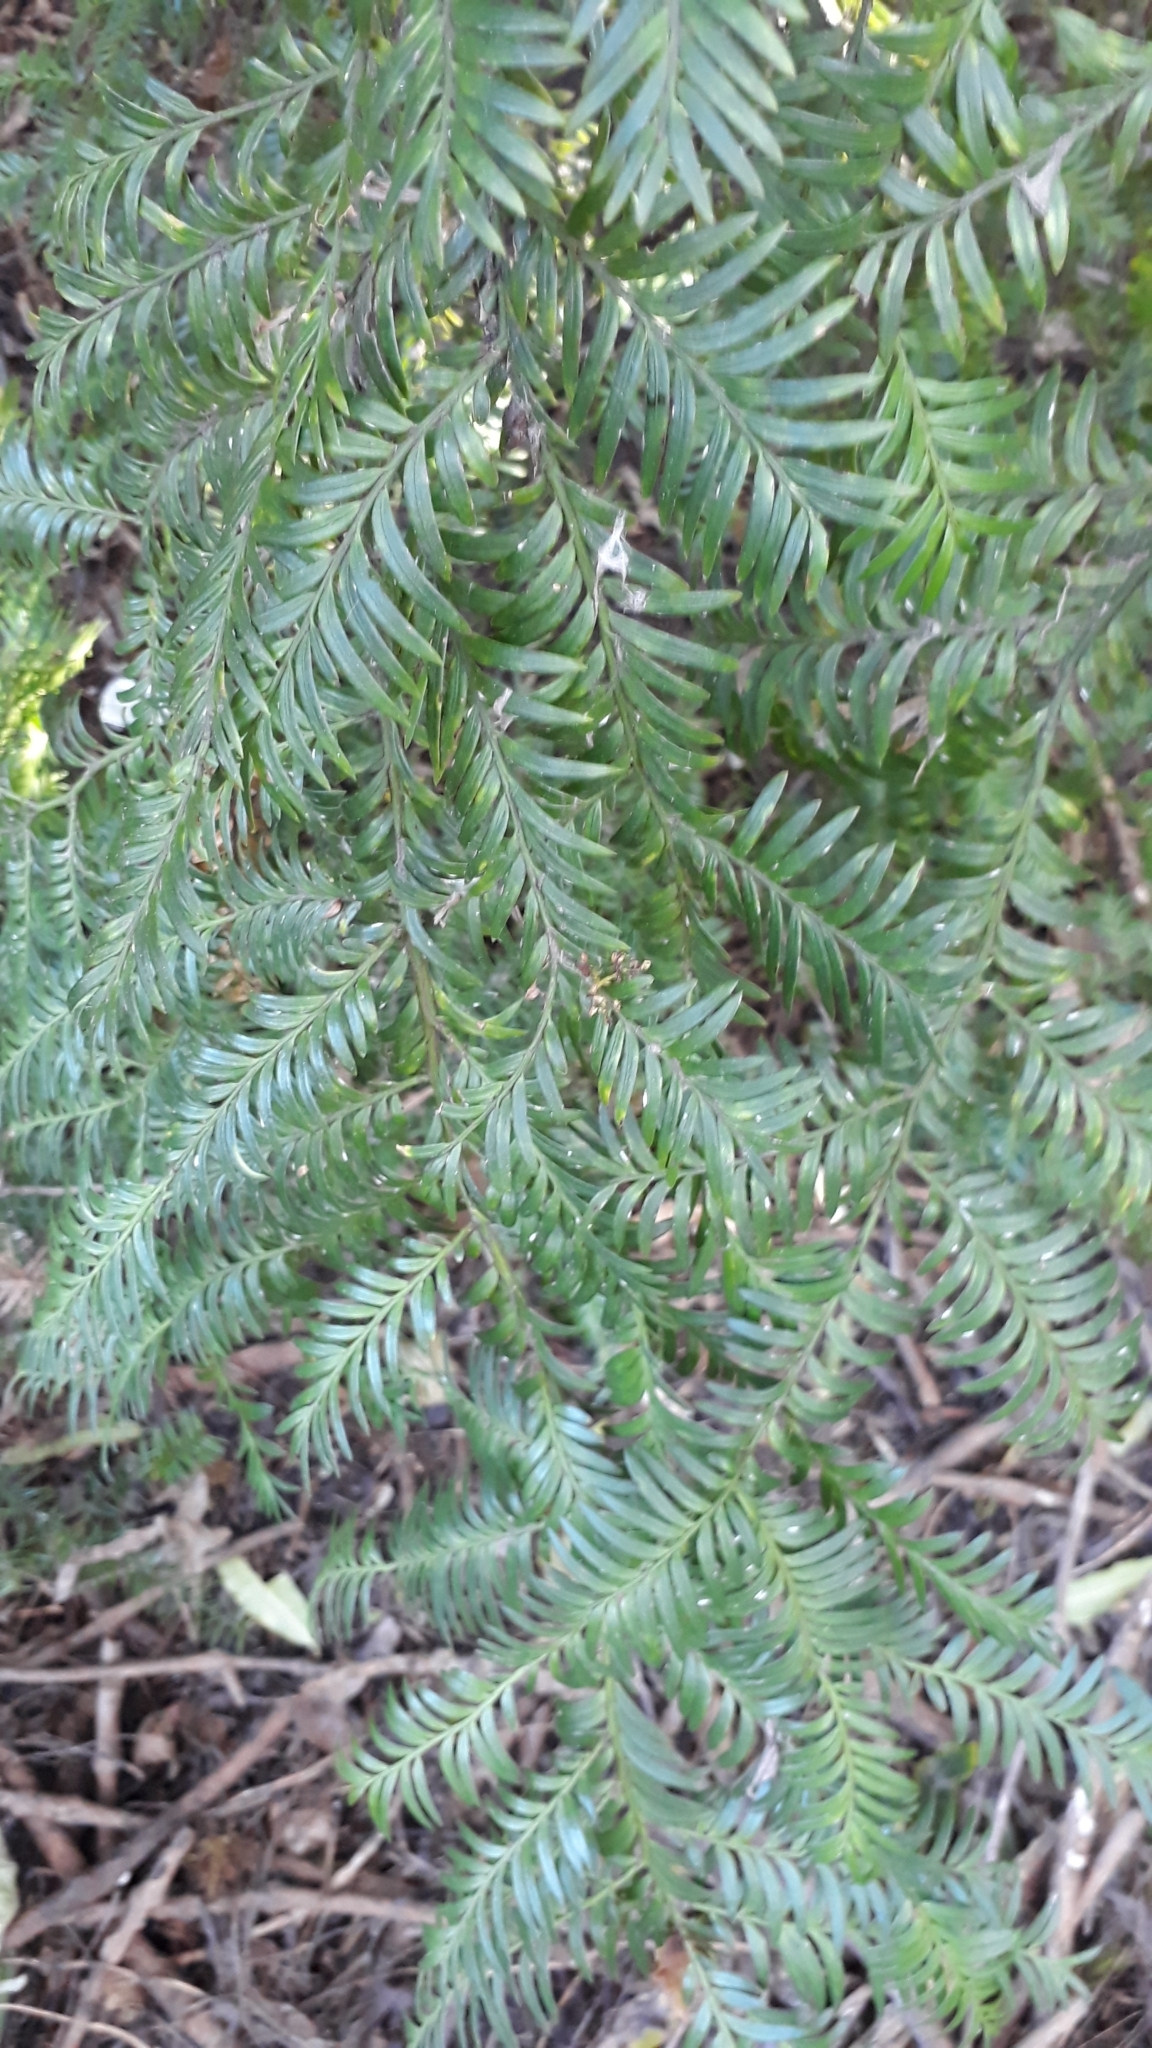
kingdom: Plantae
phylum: Tracheophyta
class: Pinopsida
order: Pinales
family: Podocarpaceae
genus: Prumnopitys
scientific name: Prumnopitys ferruginea
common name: Brown pine
